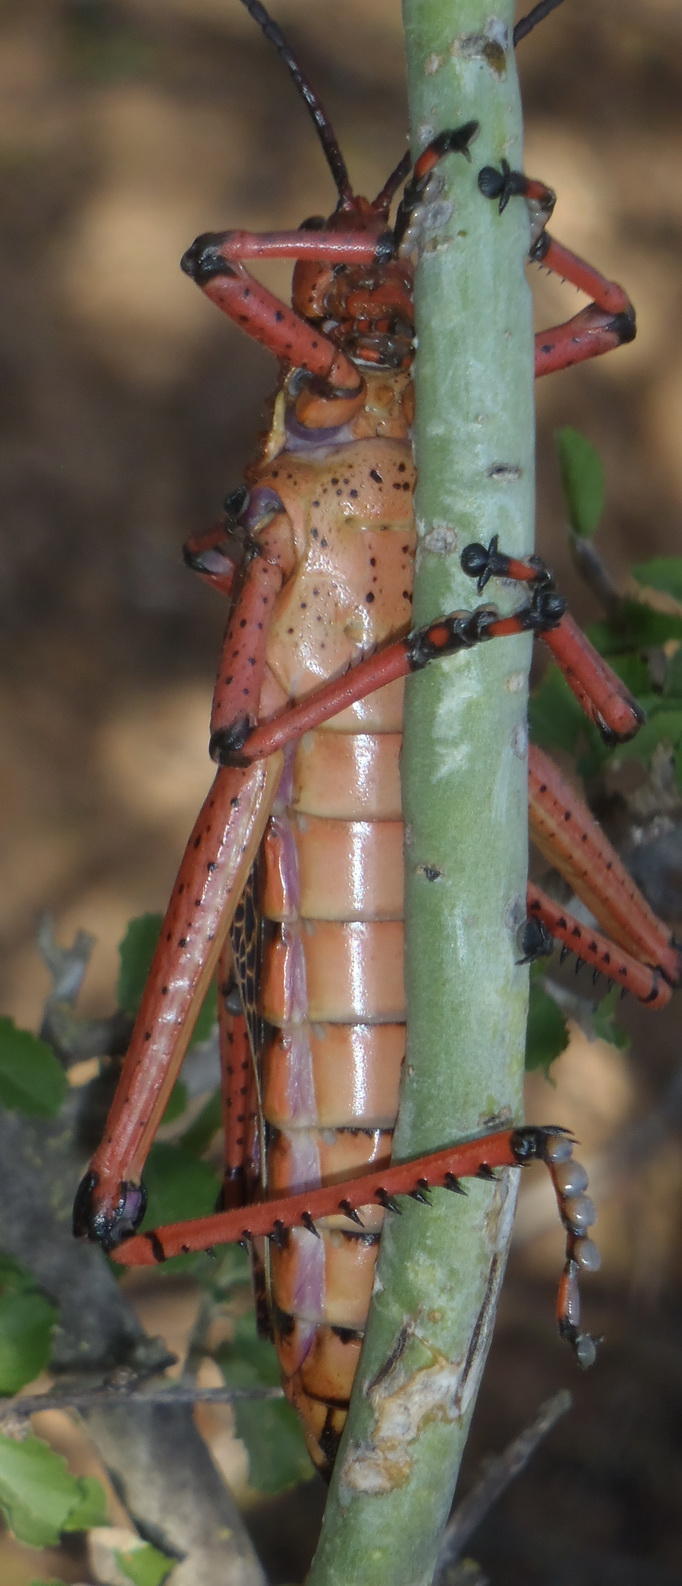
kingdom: Animalia
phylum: Arthropoda
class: Insecta
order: Orthoptera
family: Pyrgomorphidae
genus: Phymateus
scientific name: Phymateus leprosus
